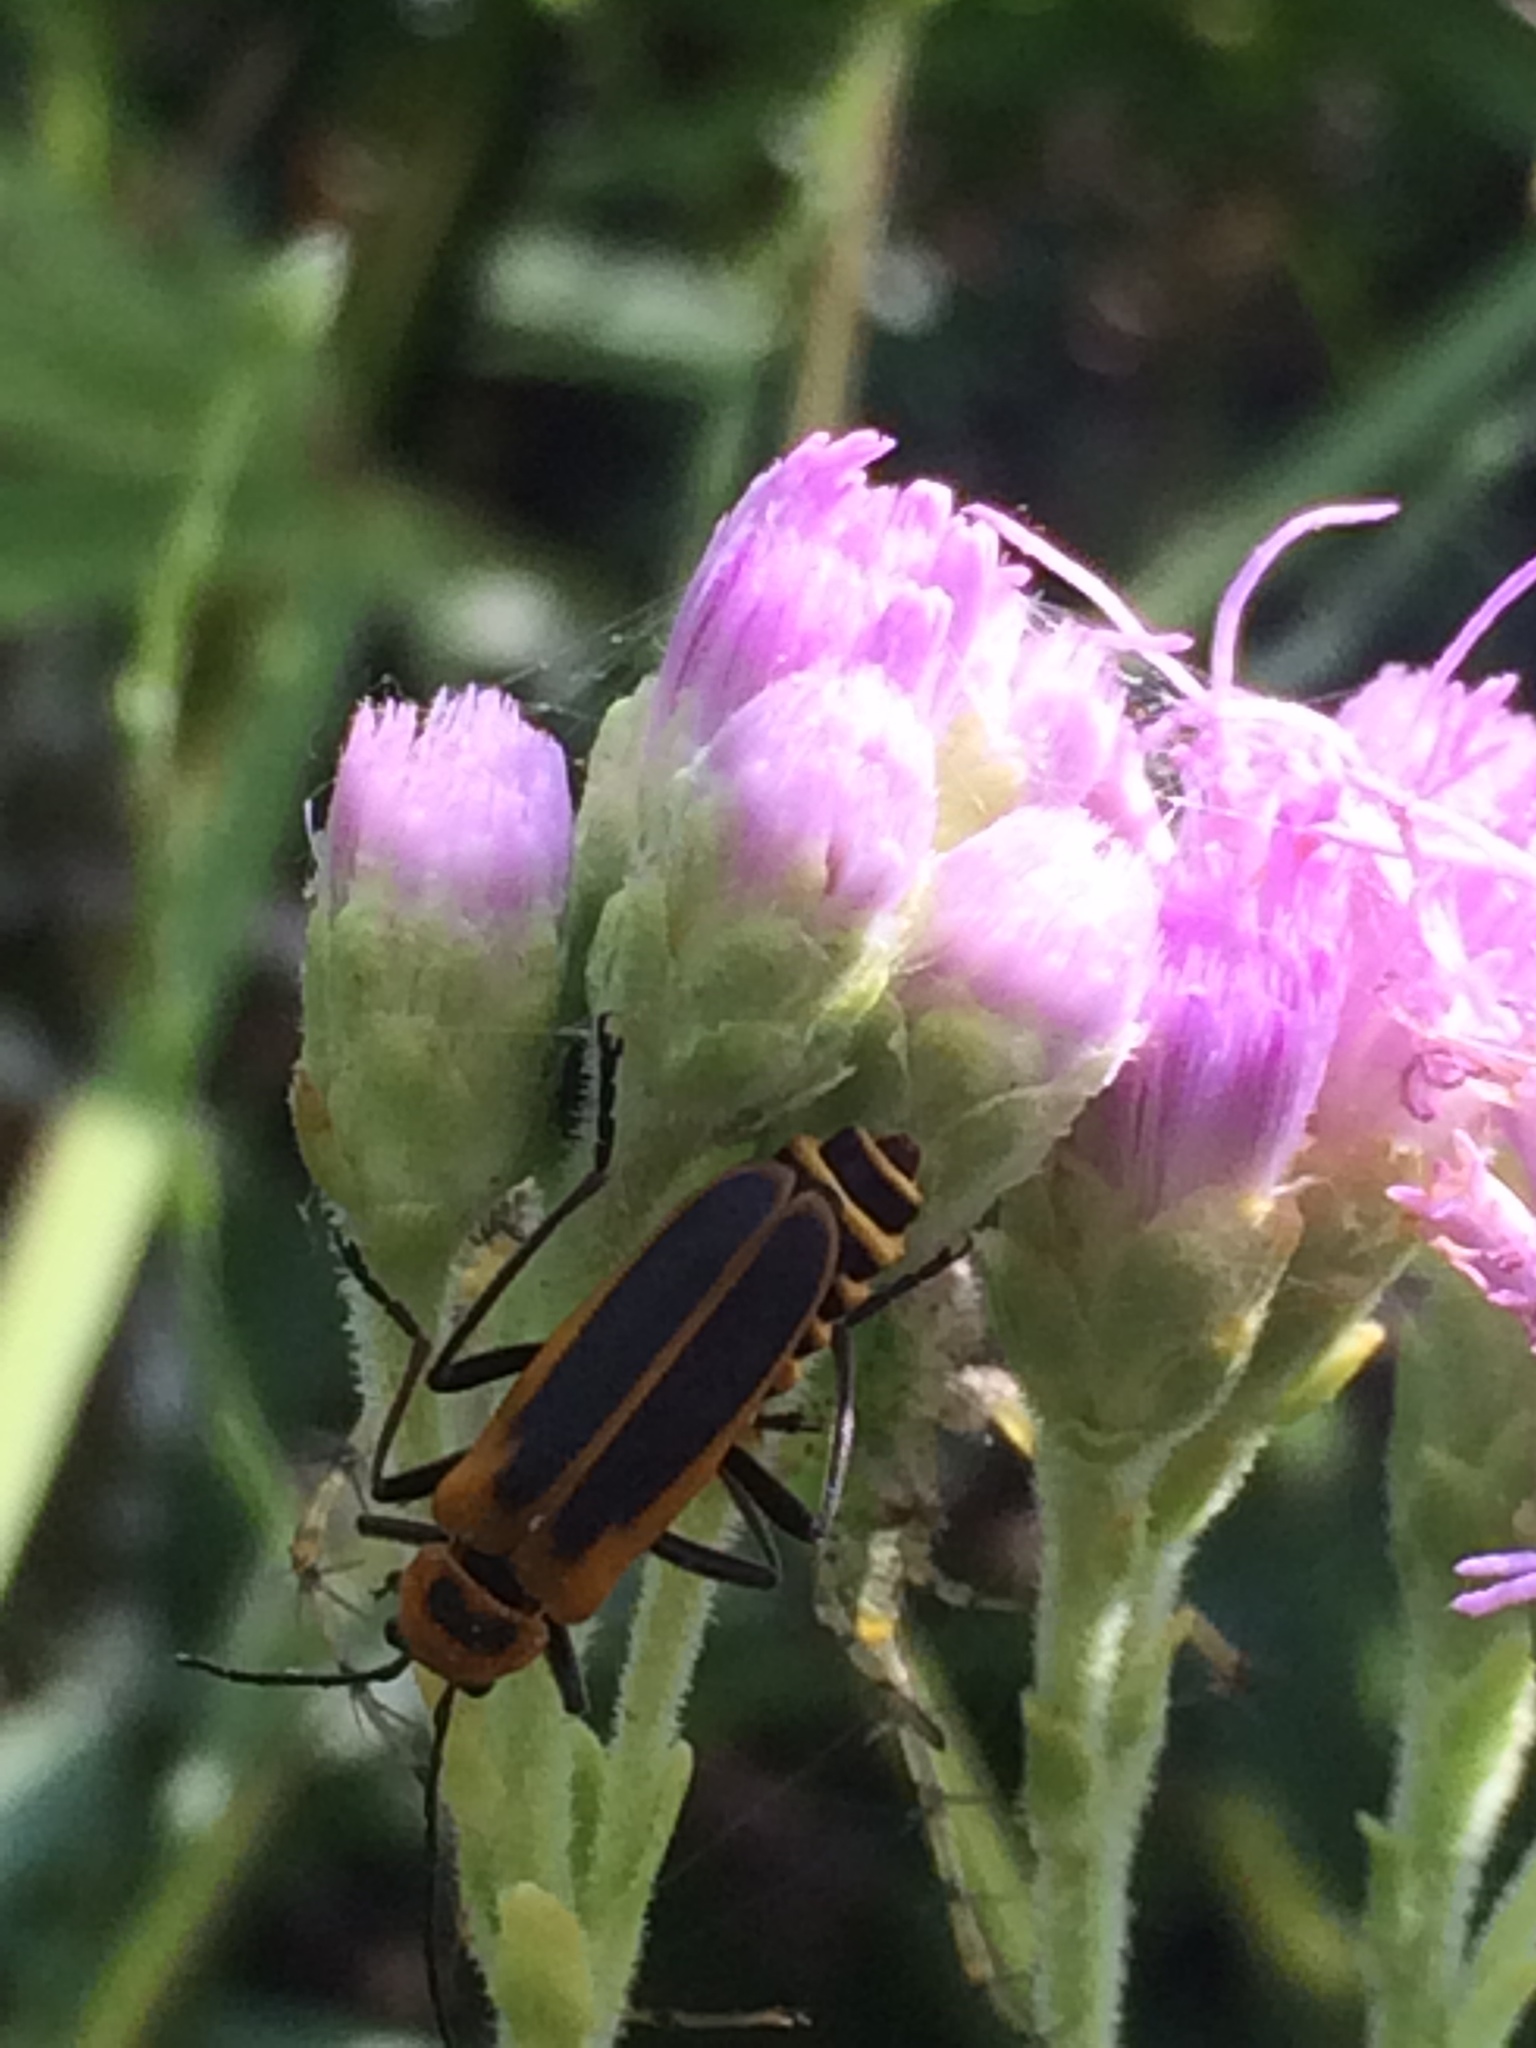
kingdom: Animalia
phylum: Arthropoda
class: Insecta
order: Coleoptera
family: Cantharidae
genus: Chauliognathus
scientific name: Chauliognathus pensylvanicus
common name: Goldenrod soldier beetle
